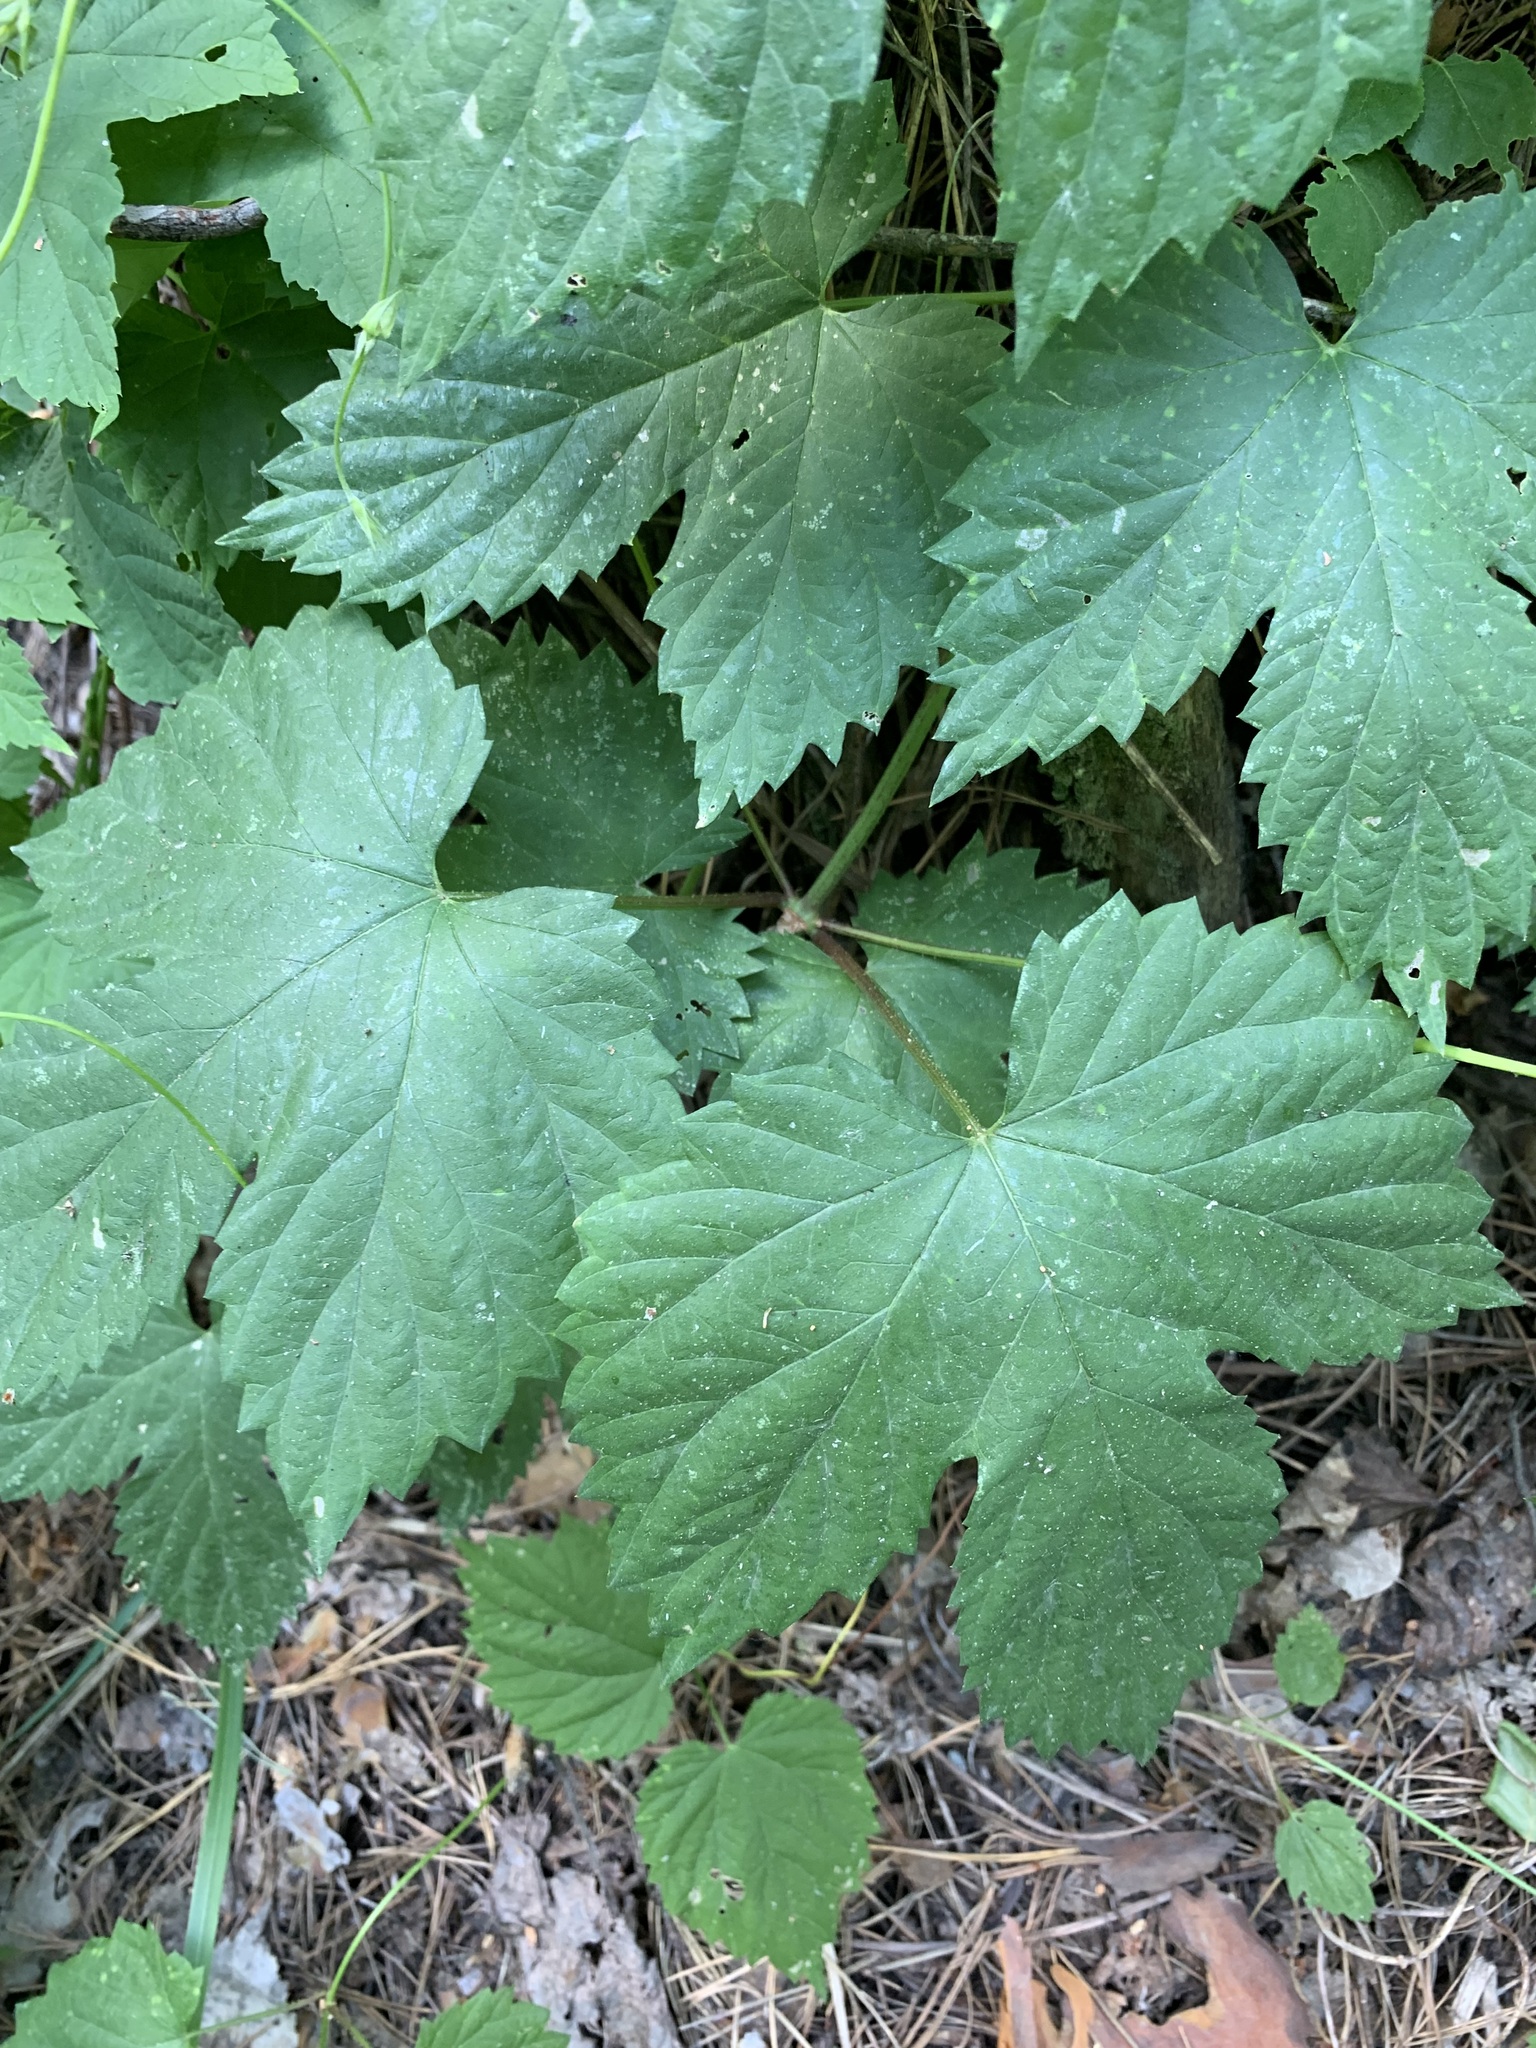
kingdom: Plantae
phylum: Tracheophyta
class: Magnoliopsida
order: Rosales
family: Cannabaceae
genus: Humulus
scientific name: Humulus lupulus
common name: Hop
